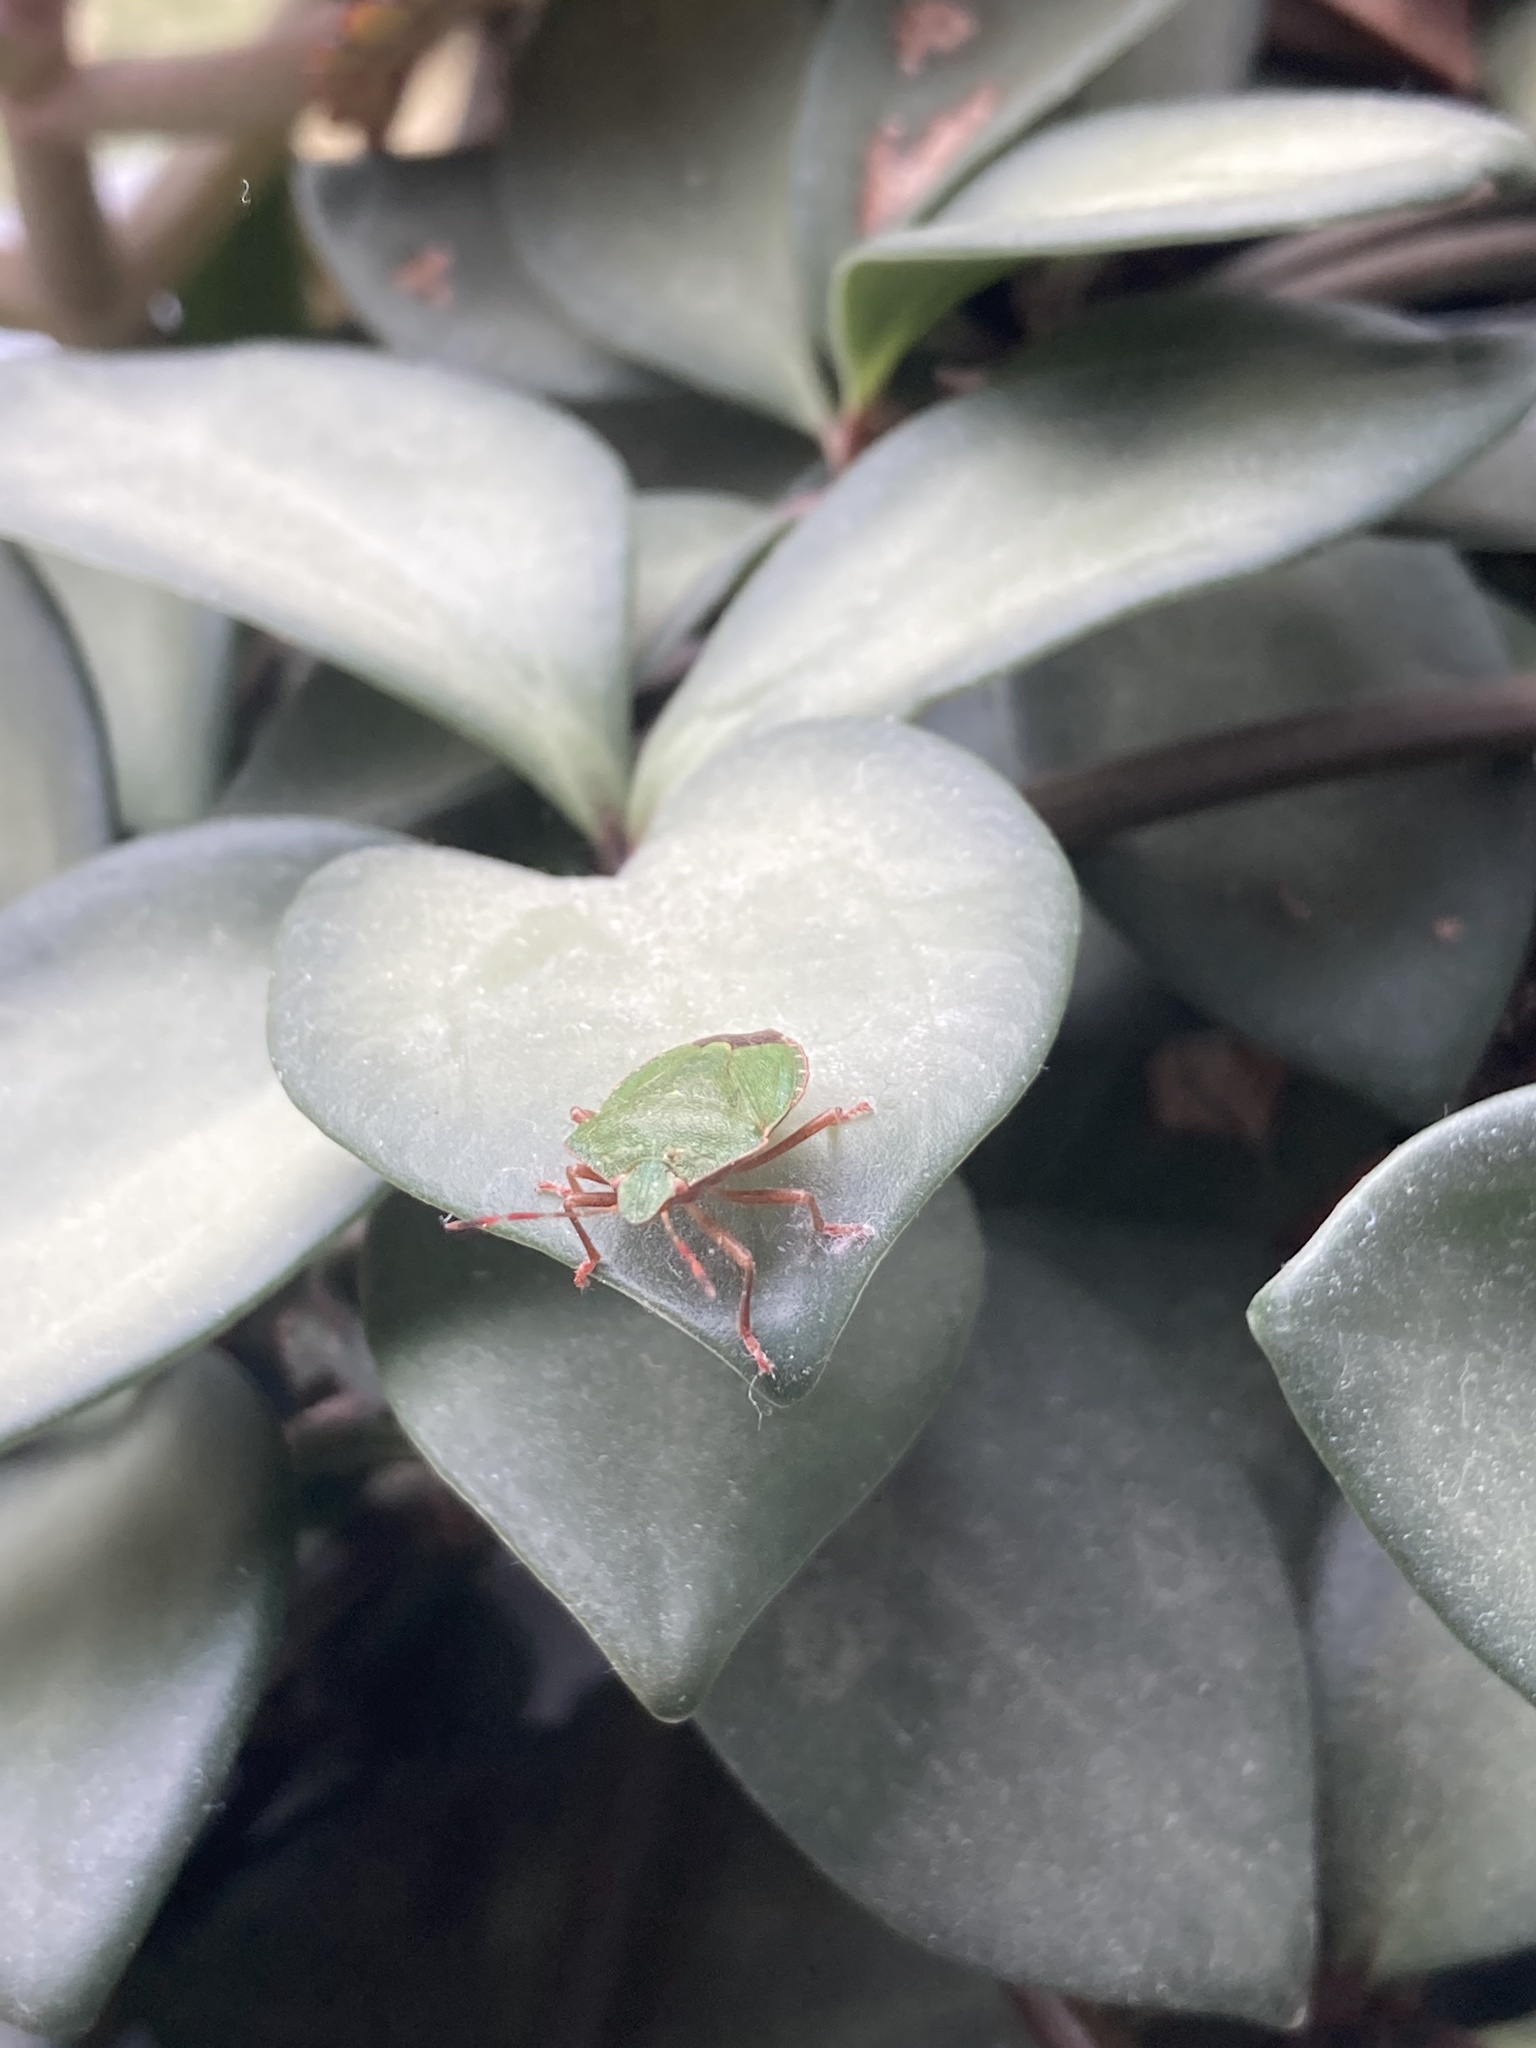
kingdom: Animalia
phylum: Arthropoda
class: Insecta
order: Hemiptera
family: Pentatomidae
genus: Palomena
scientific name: Palomena prasina
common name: Green shieldbug
